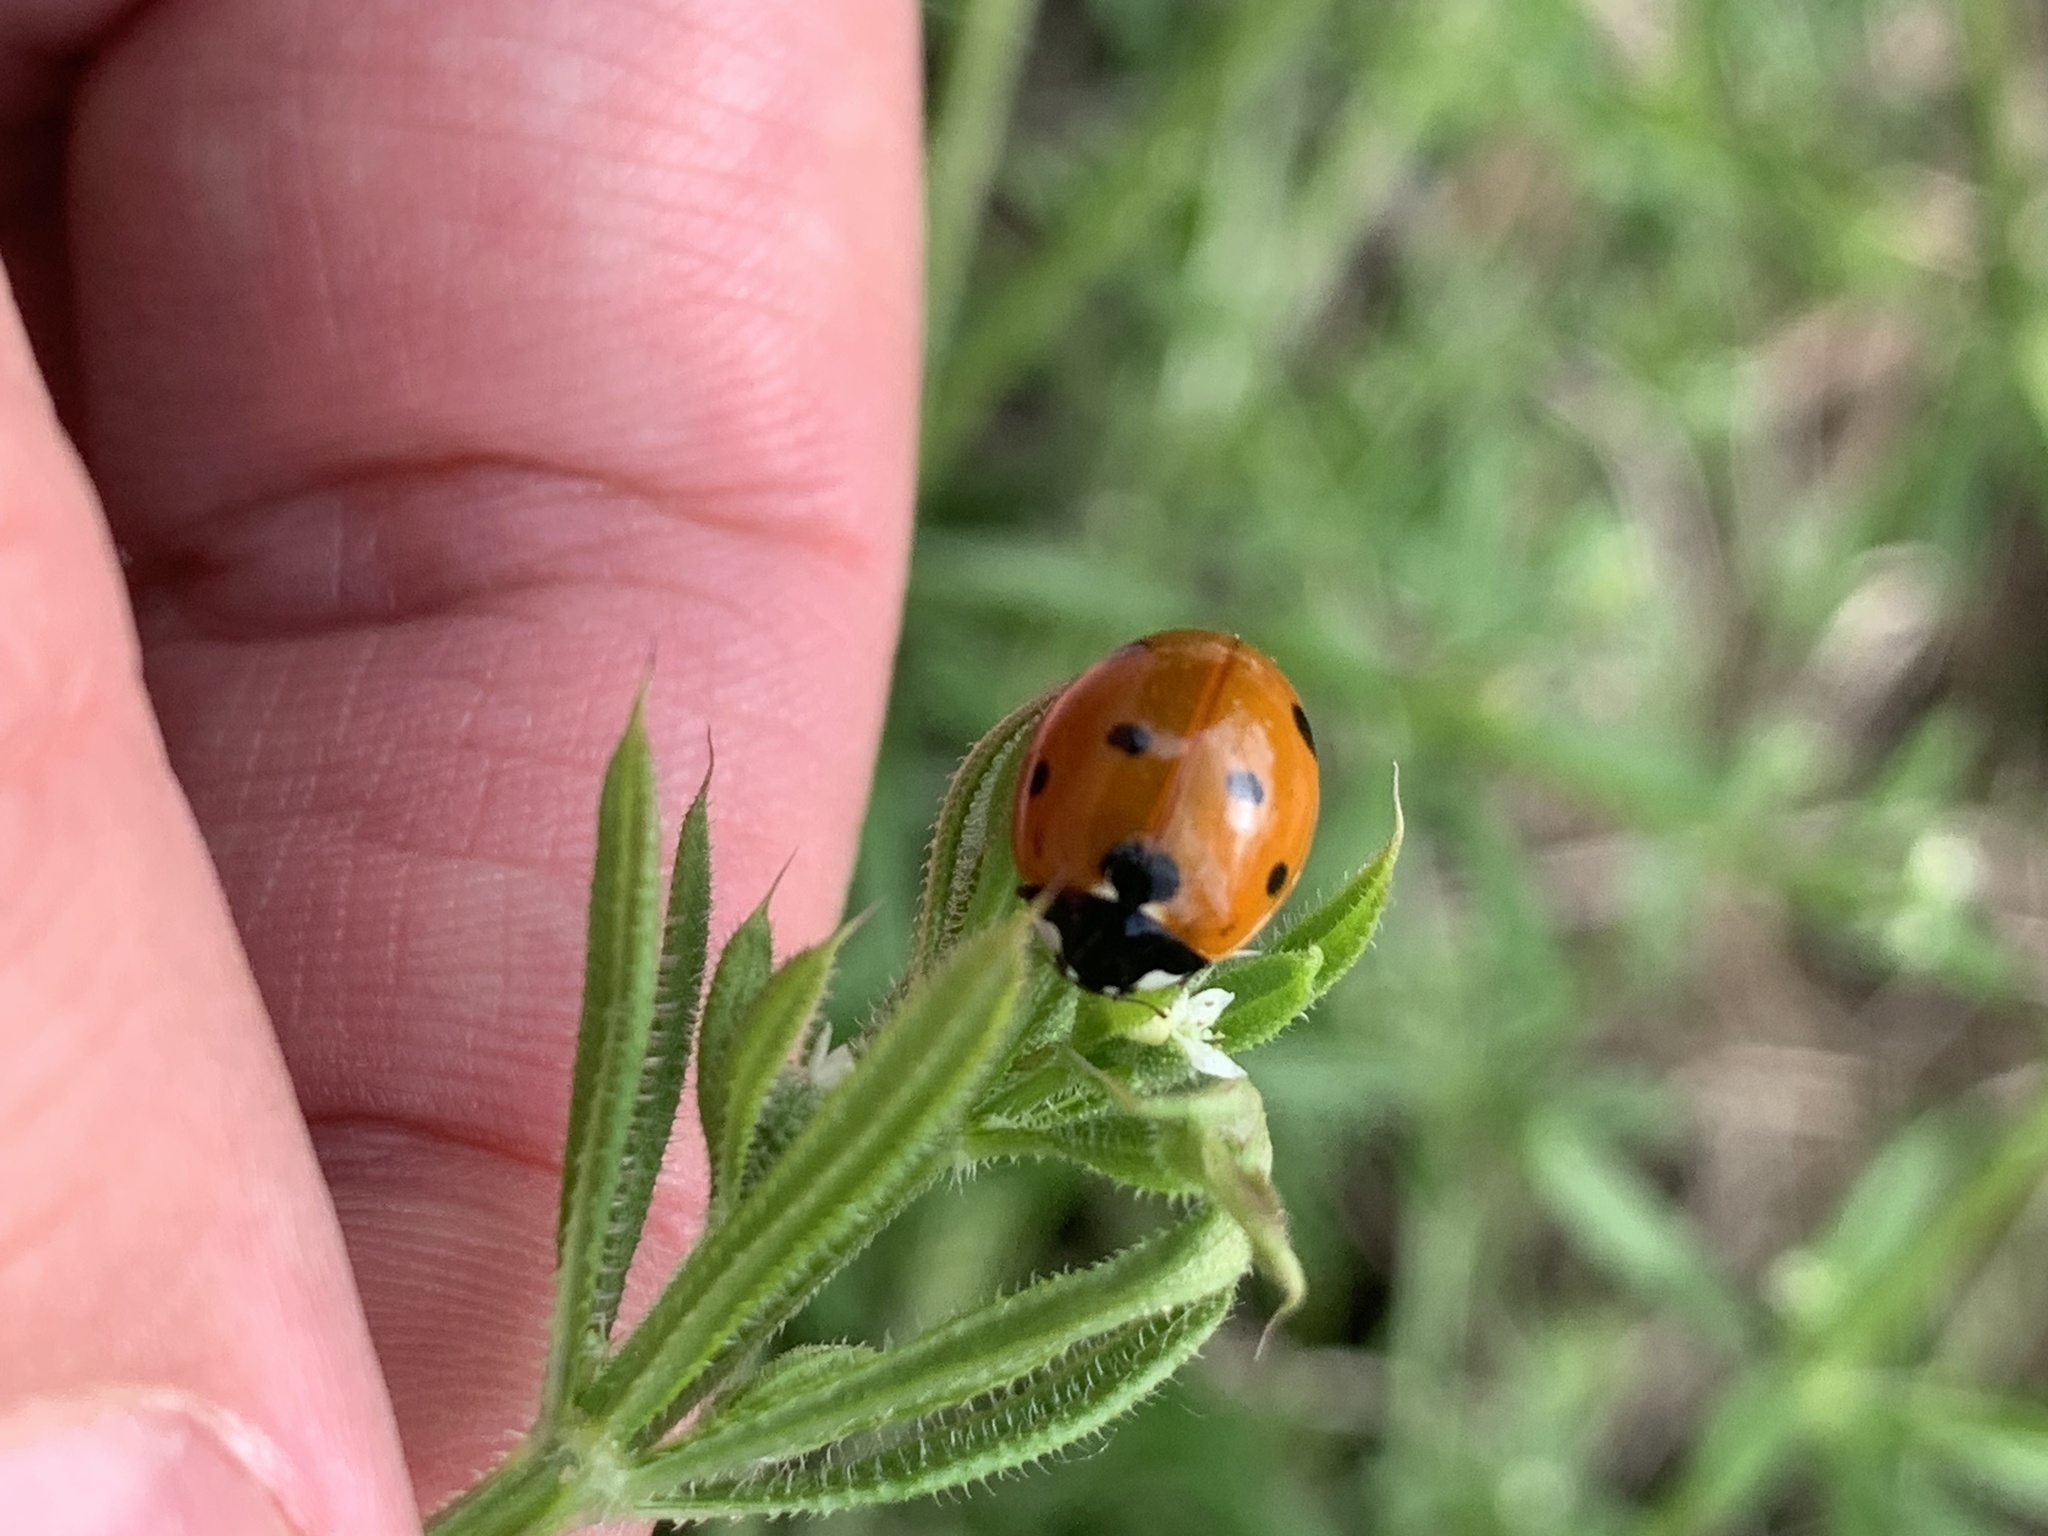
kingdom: Animalia
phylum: Arthropoda
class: Insecta
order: Coleoptera
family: Coccinellidae
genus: Coccinella
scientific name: Coccinella septempunctata
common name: Sevenspotted lady beetle
